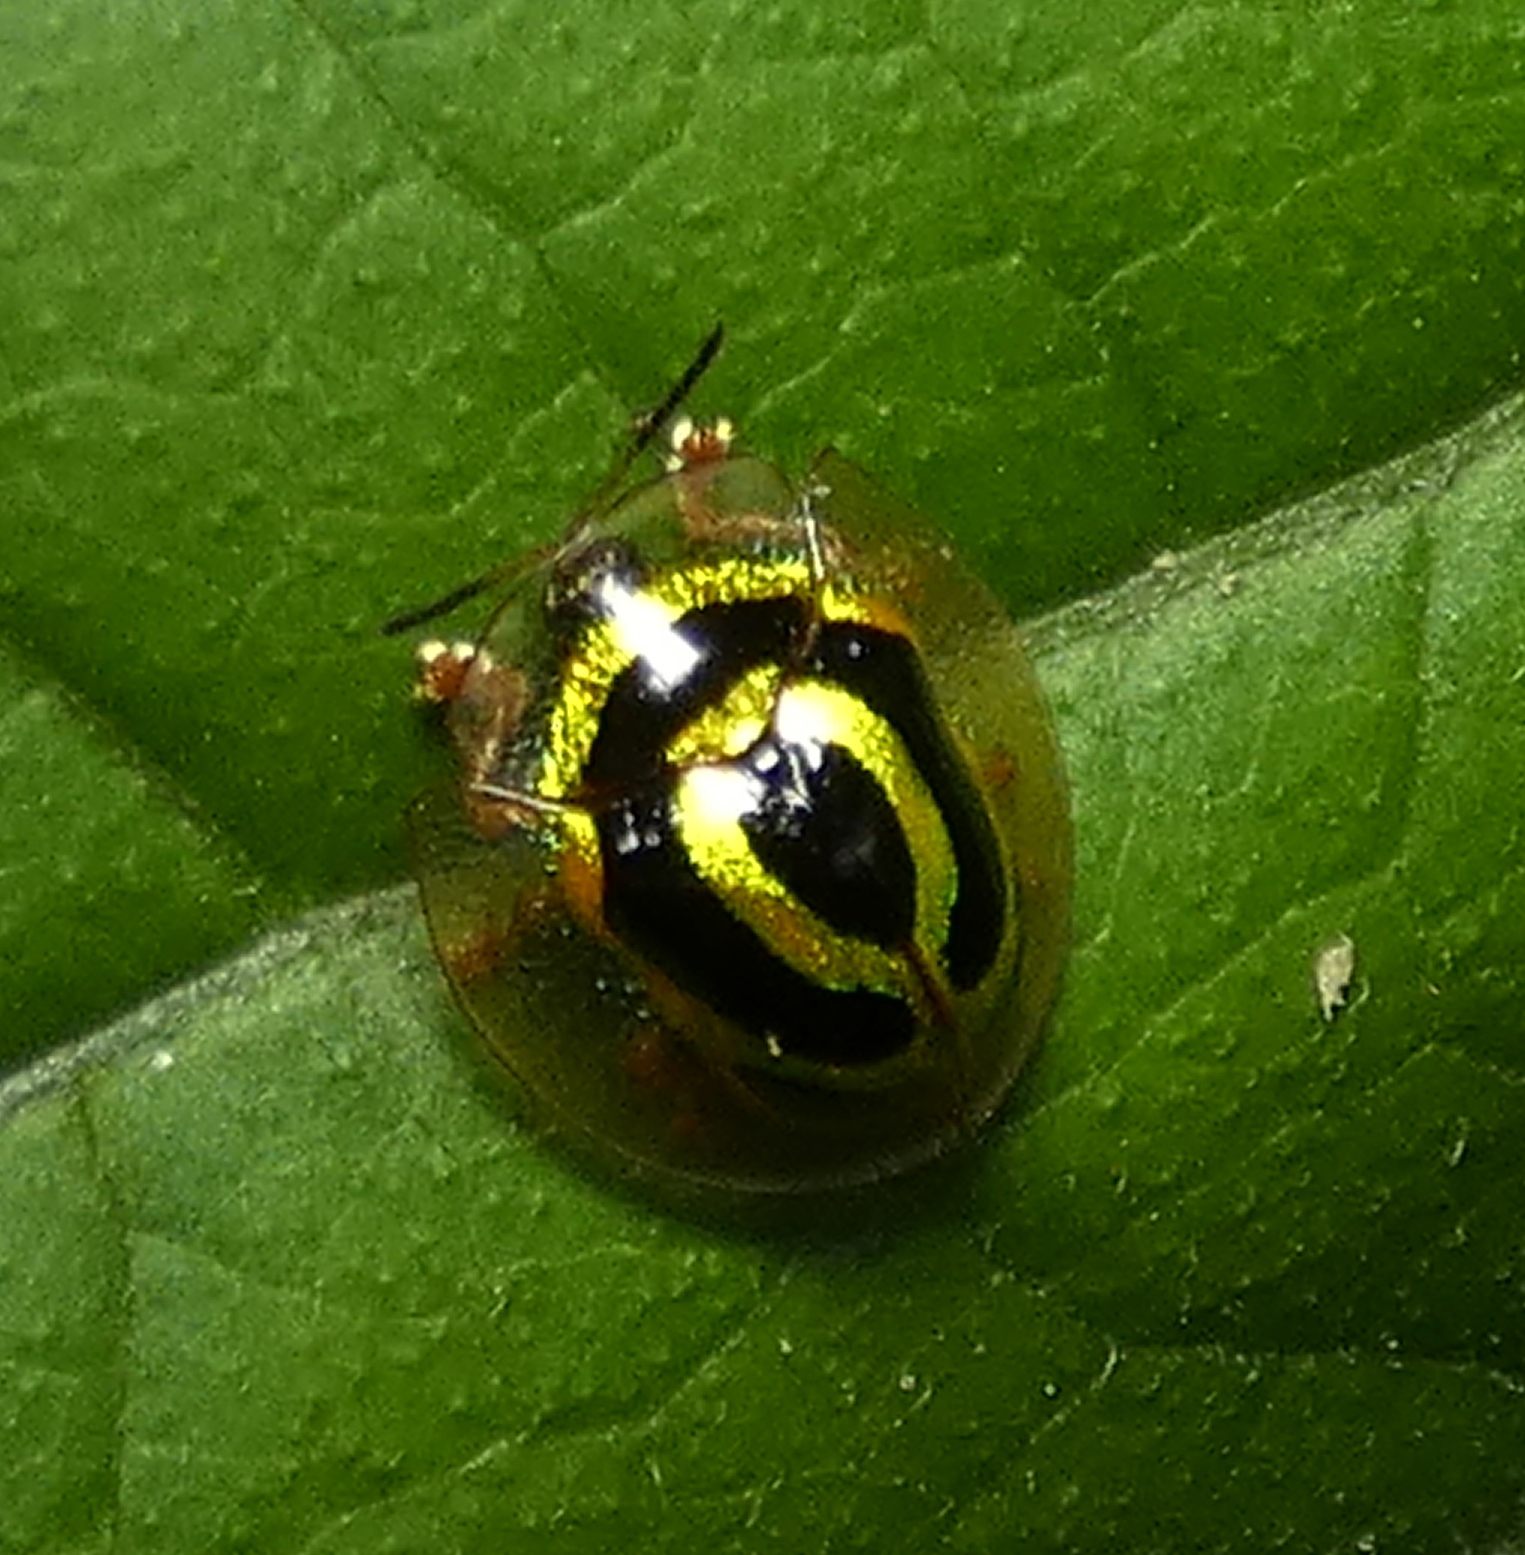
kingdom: Animalia
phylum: Arthropoda
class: Insecta
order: Coleoptera
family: Chrysomelidae
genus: Coptocycla
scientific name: Coptocycla arcuata
